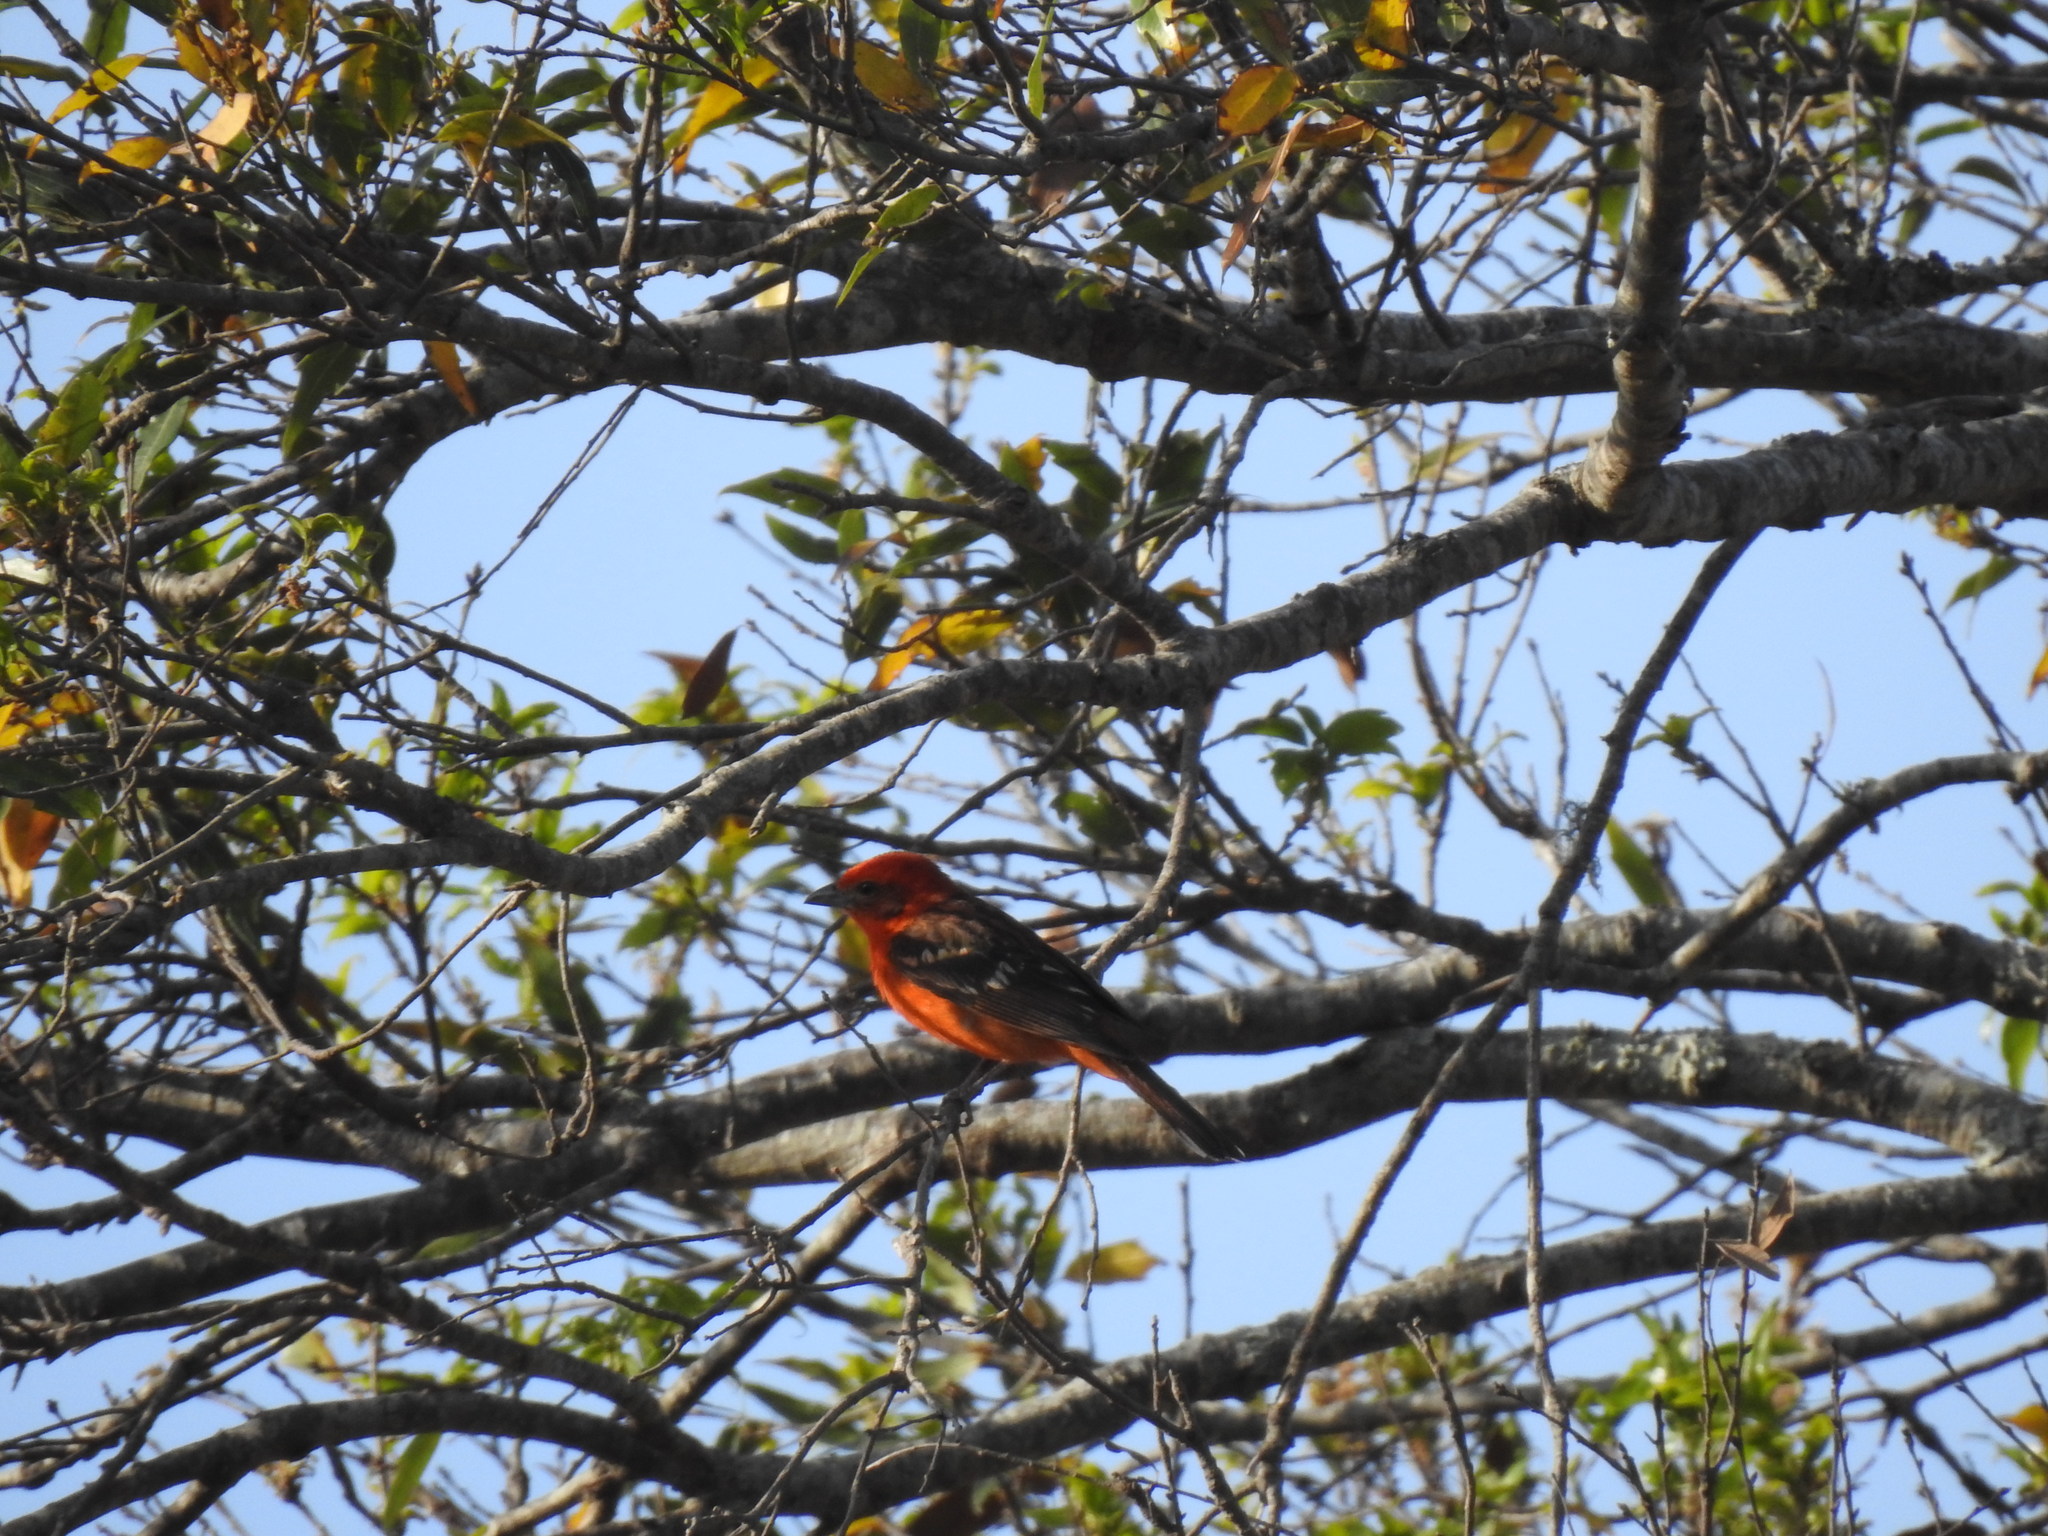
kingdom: Animalia
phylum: Chordata
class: Aves
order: Passeriformes
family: Cardinalidae
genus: Piranga
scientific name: Piranga bidentata
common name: Flame-colored tanager
